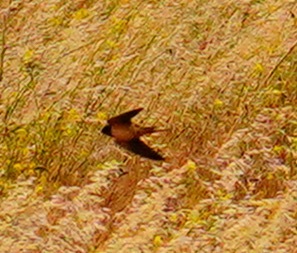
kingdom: Animalia
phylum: Chordata
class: Aves
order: Passeriformes
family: Hirundinidae
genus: Hirundo
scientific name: Hirundo rustica
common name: Barn swallow
